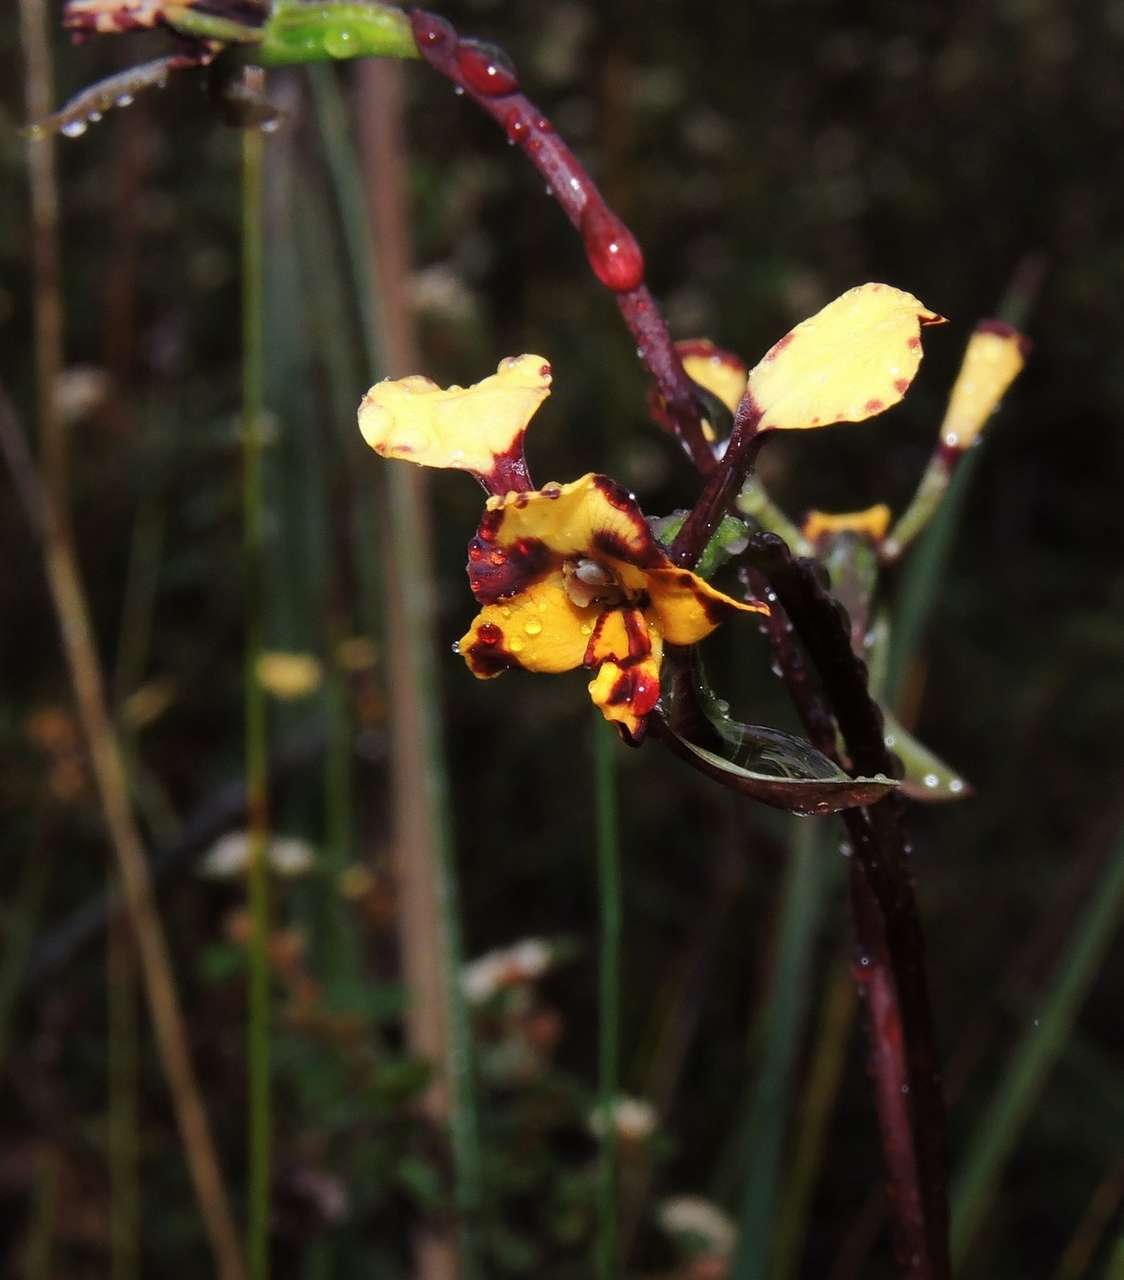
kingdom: Plantae
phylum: Tracheophyta
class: Liliopsida
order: Asparagales
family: Orchidaceae
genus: Diuris
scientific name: Diuris pardina
